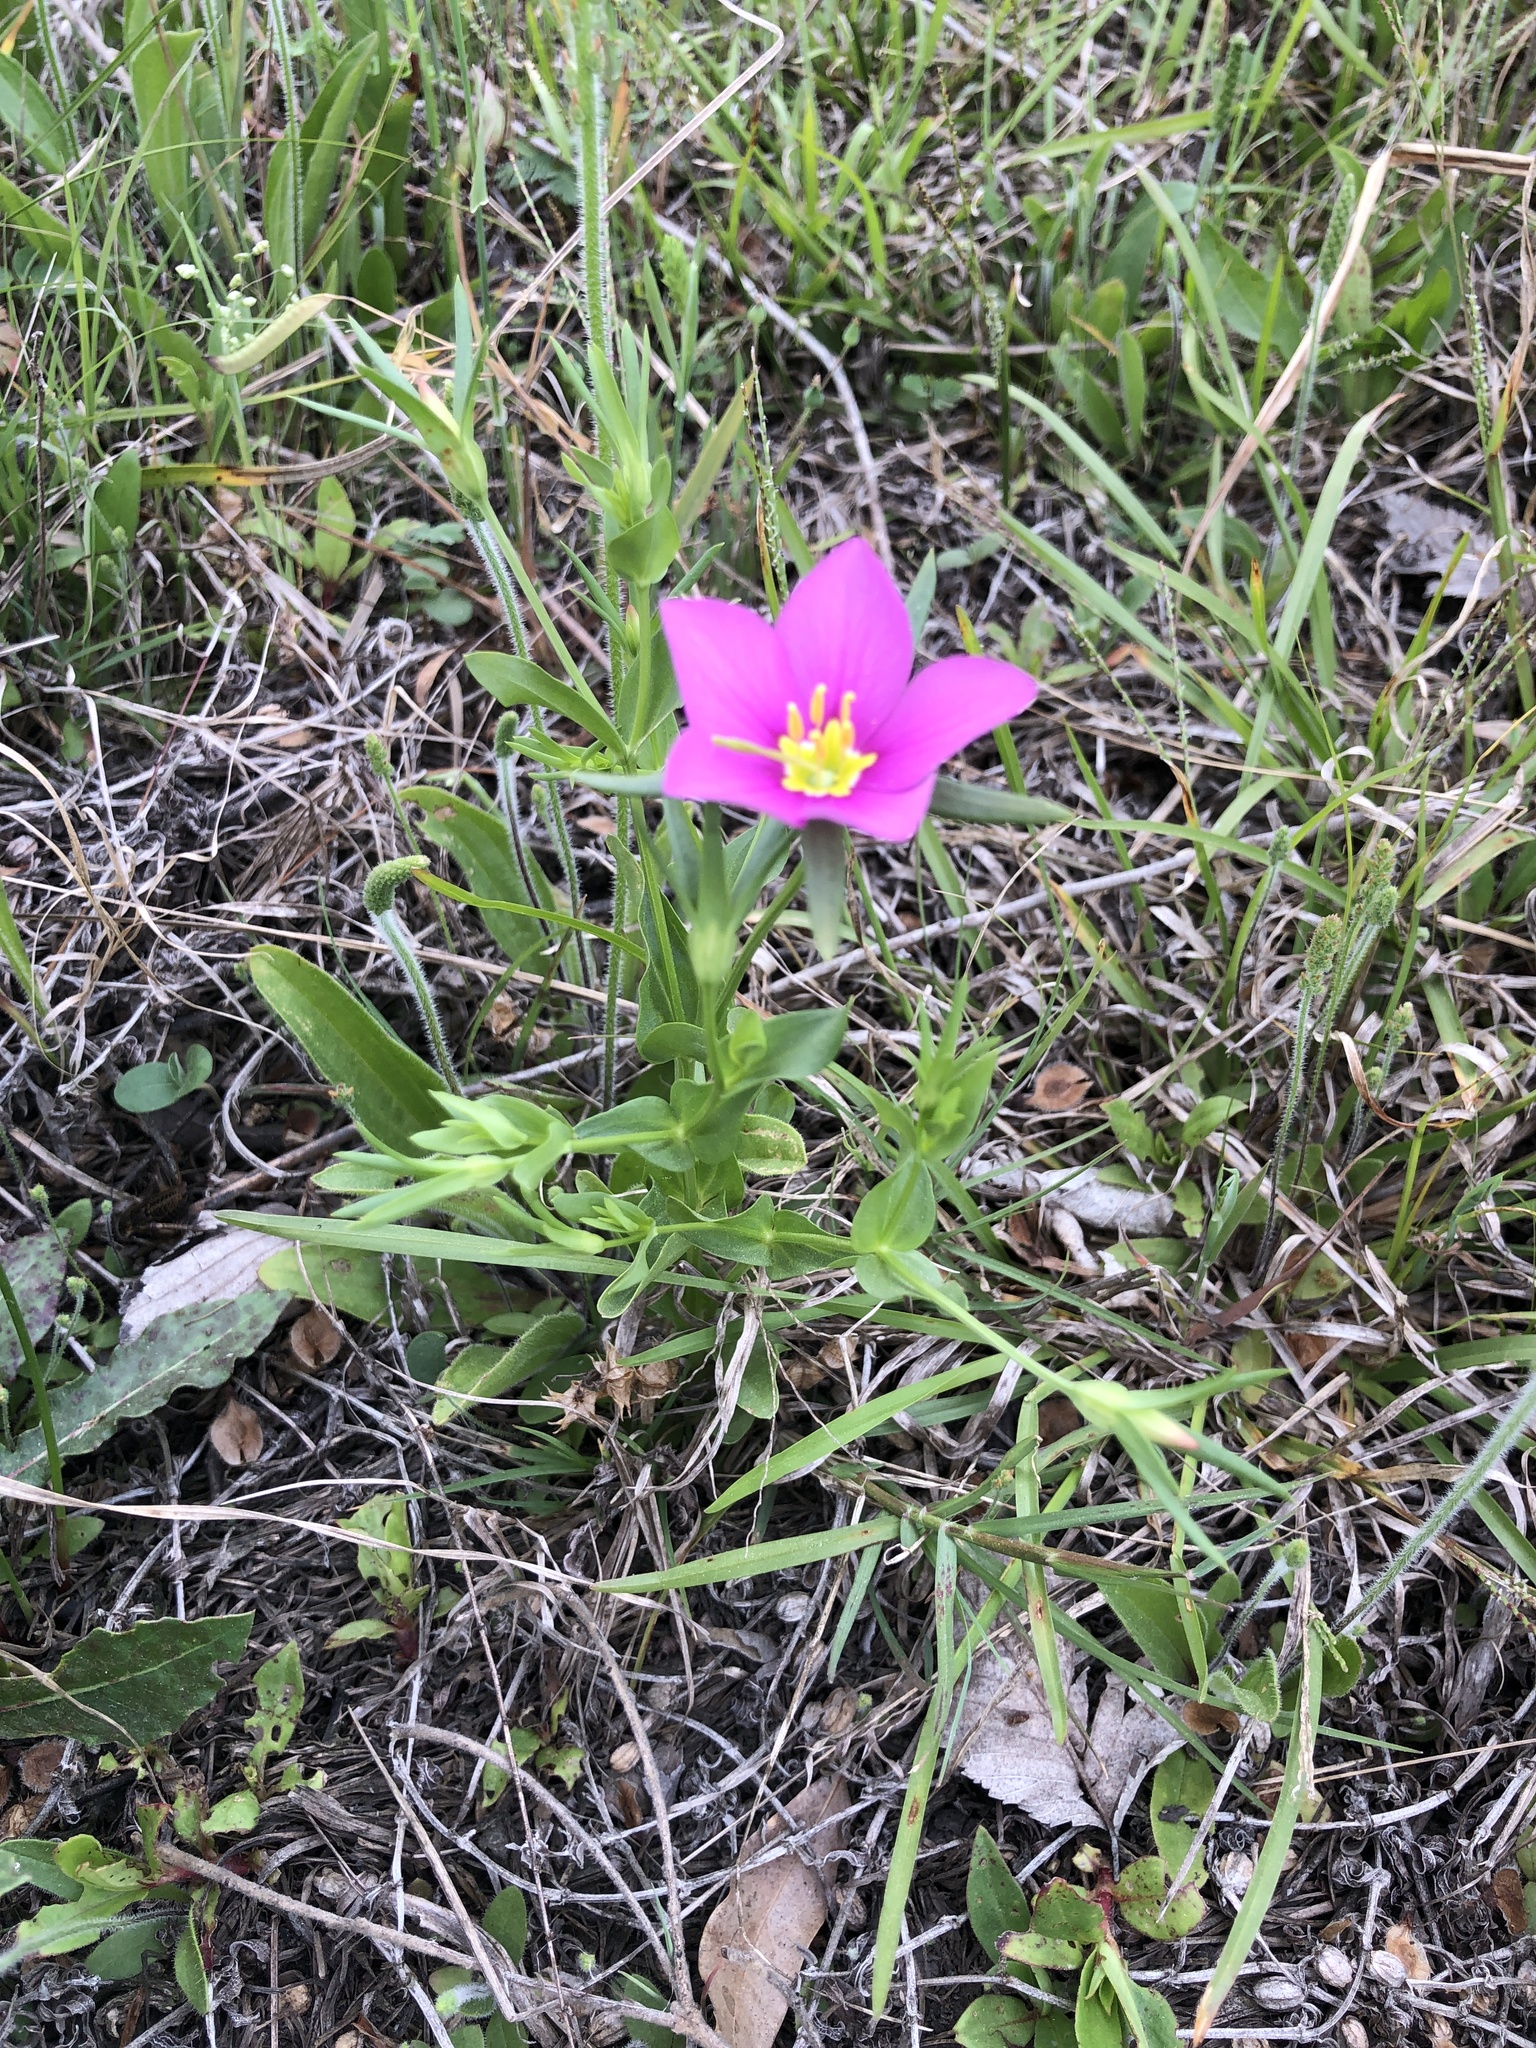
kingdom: Plantae
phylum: Tracheophyta
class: Magnoliopsida
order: Gentianales
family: Gentianaceae
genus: Sabatia
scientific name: Sabatia campestris
